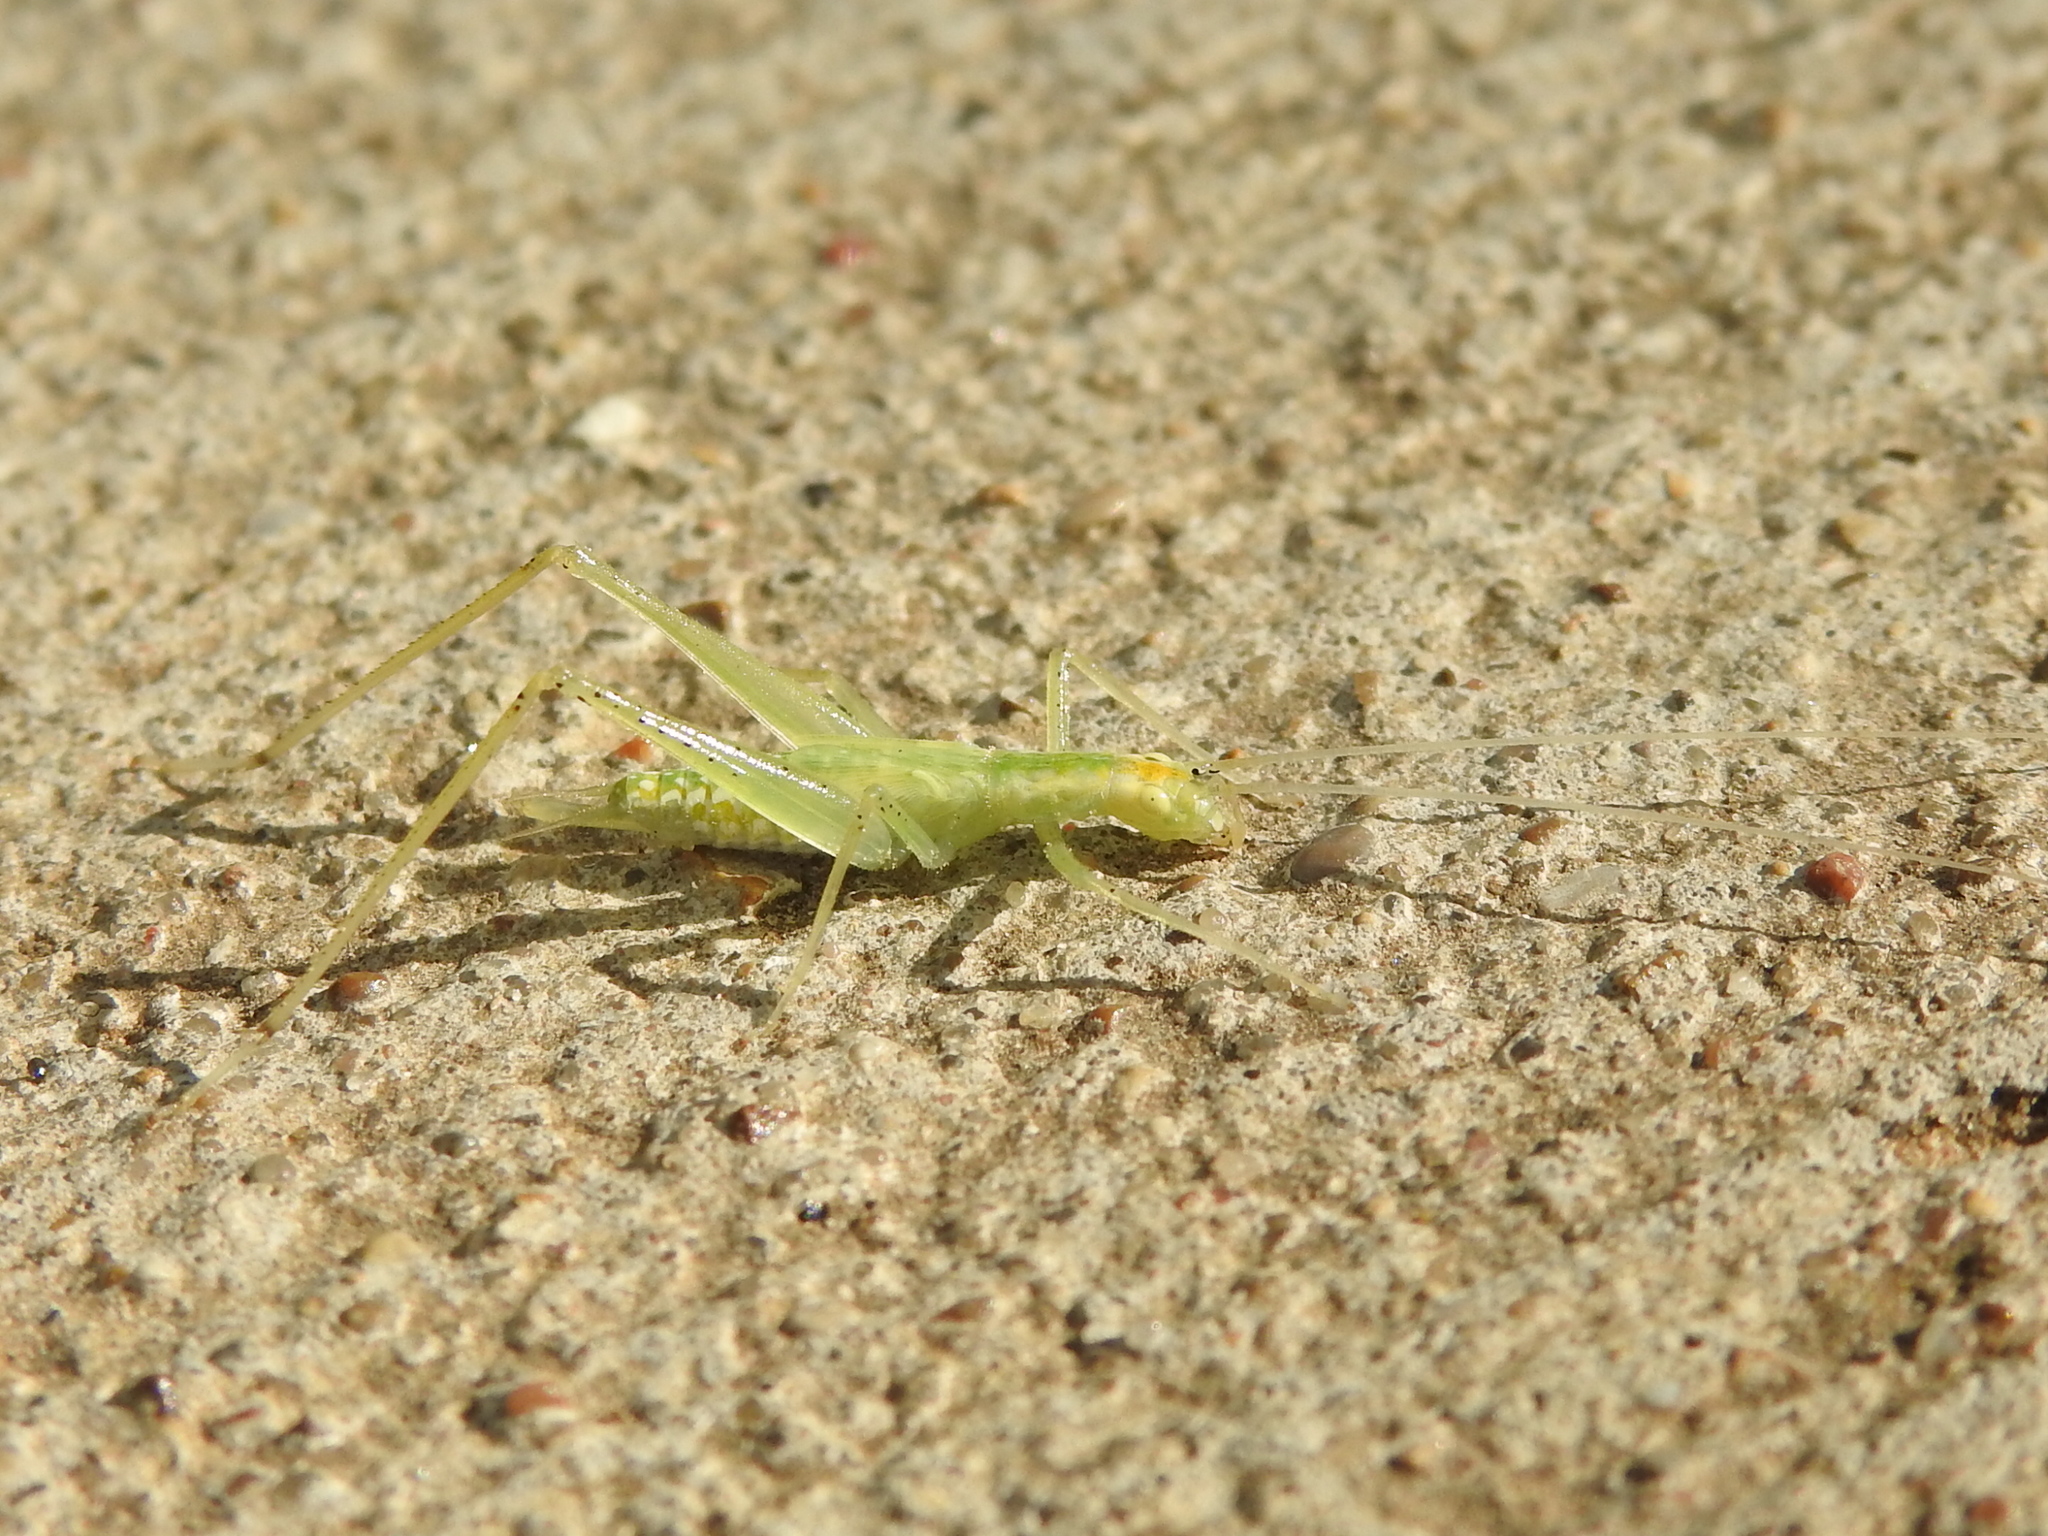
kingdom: Animalia
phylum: Arthropoda
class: Insecta
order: Orthoptera
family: Gryllidae
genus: Oecanthus
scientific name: Oecanthus niveus
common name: Narrow-winged tree cricket
